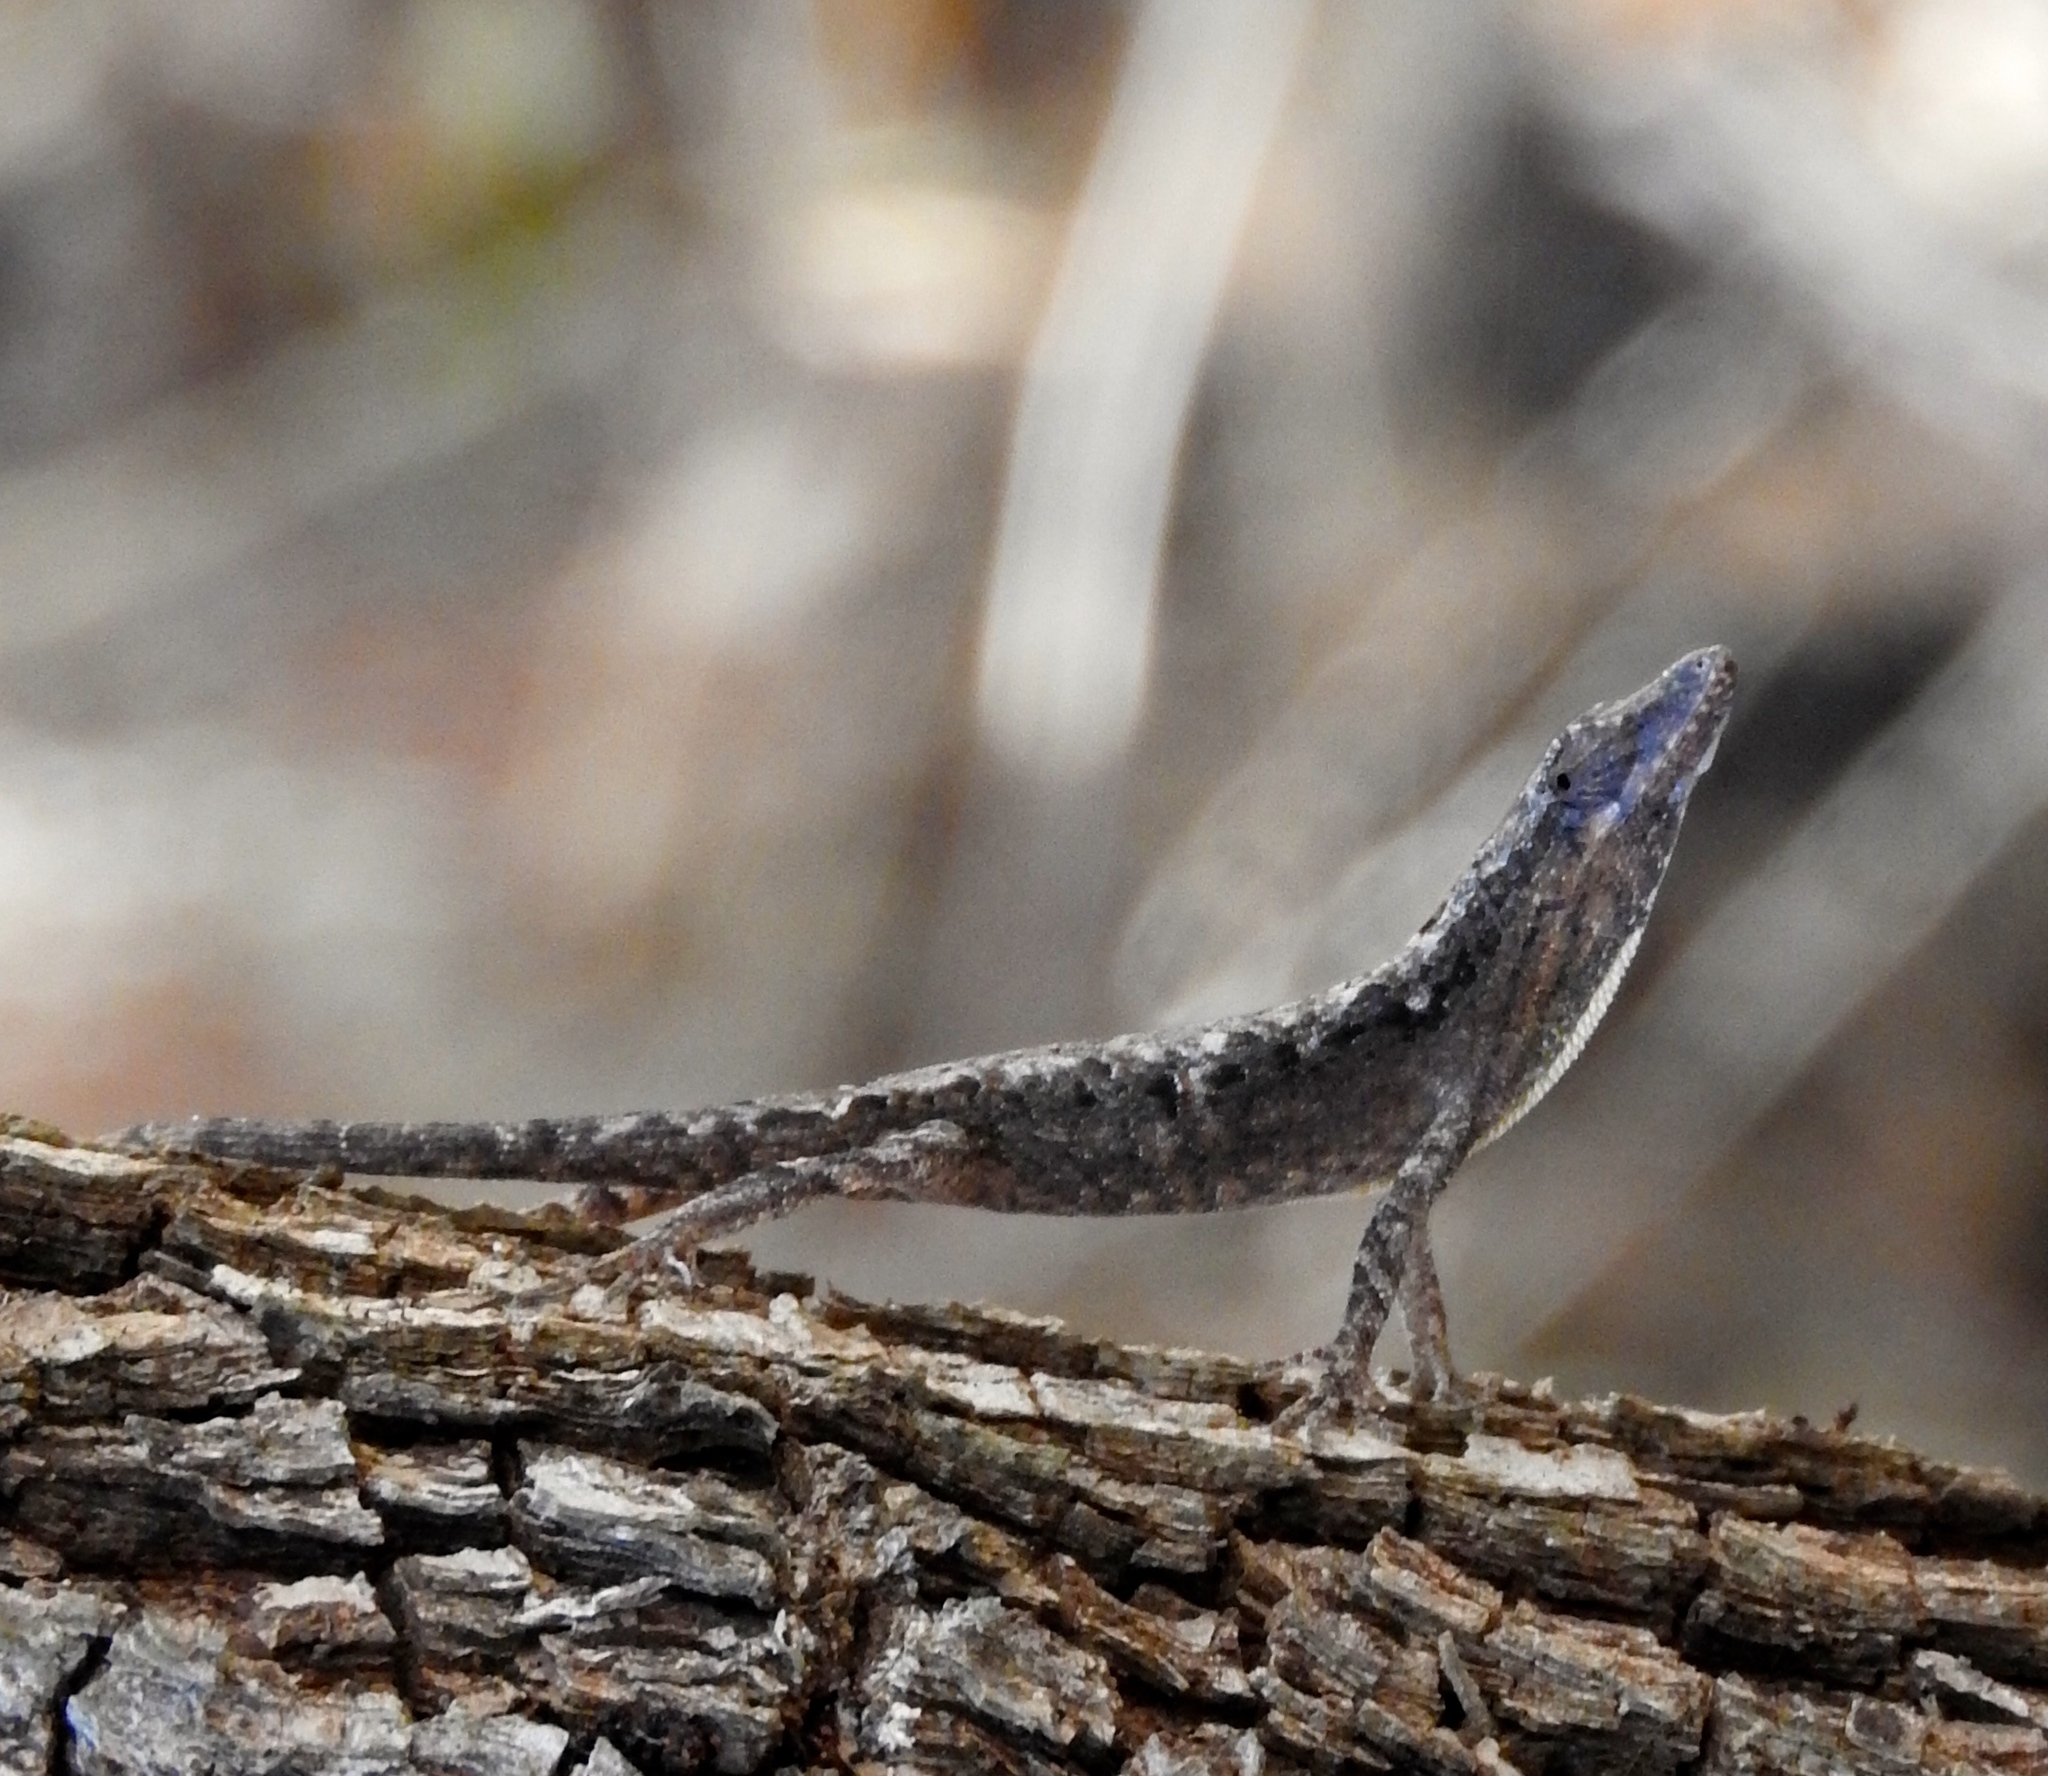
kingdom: Animalia
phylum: Chordata
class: Squamata
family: Dactyloidae
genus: Anolis
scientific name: Anolis nebulosus
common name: Clouded anole
